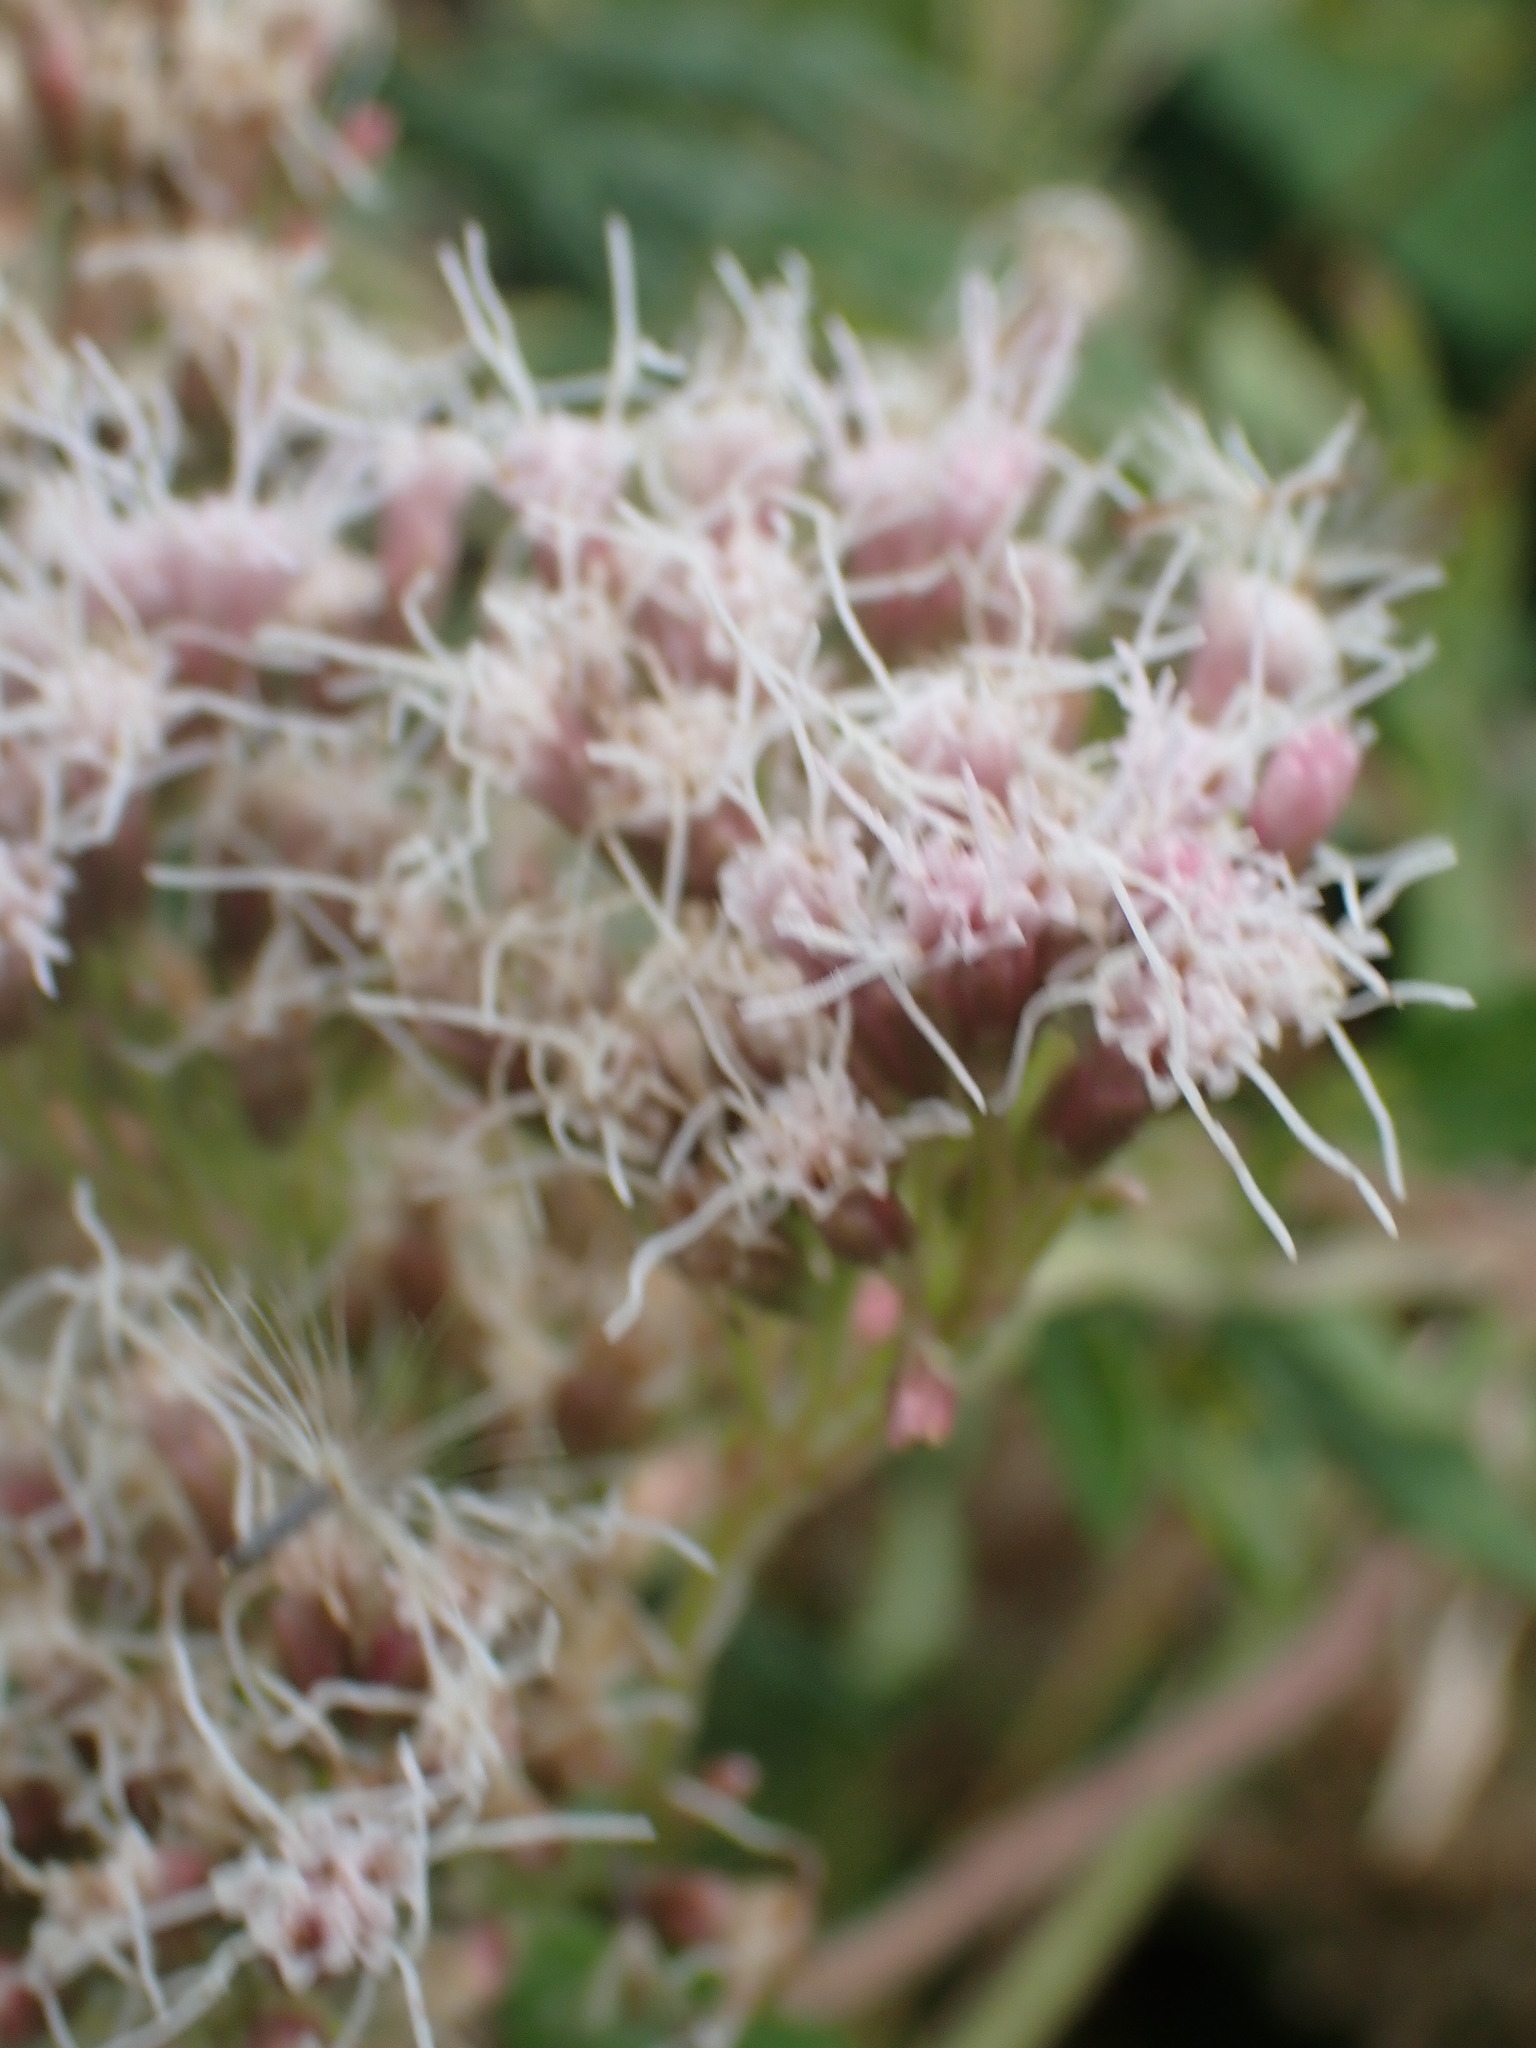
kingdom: Plantae
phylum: Tracheophyta
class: Magnoliopsida
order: Asterales
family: Asteraceae
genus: Eupatorium
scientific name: Eupatorium cannabinum
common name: Hemp-agrimony
